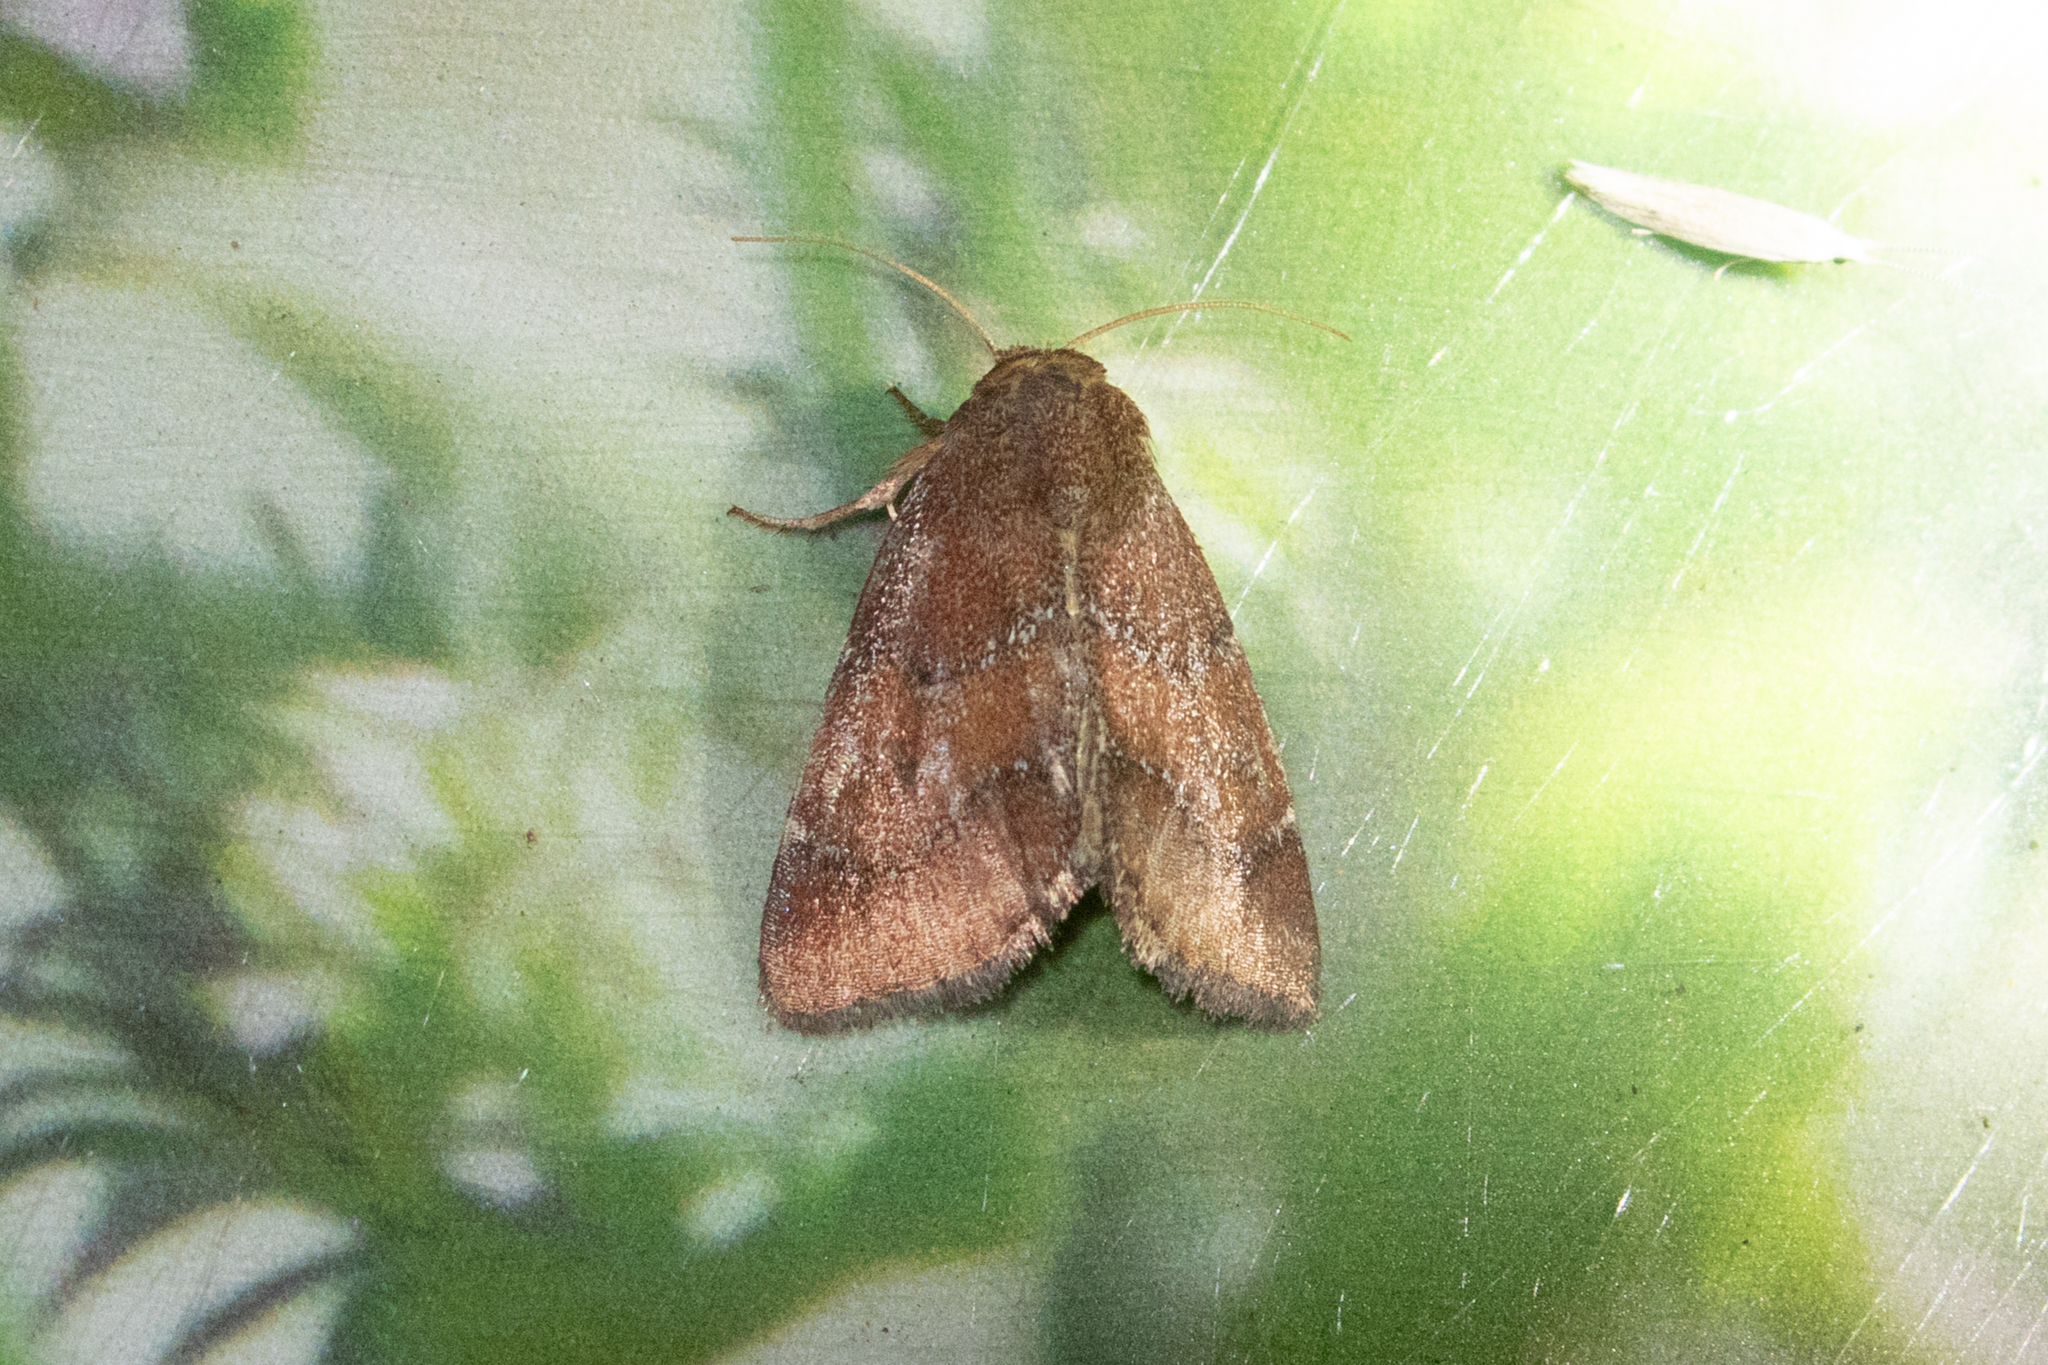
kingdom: Animalia
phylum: Arthropoda
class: Insecta
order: Lepidoptera
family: Noctuidae
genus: Schinia
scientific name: Schinia saturata
